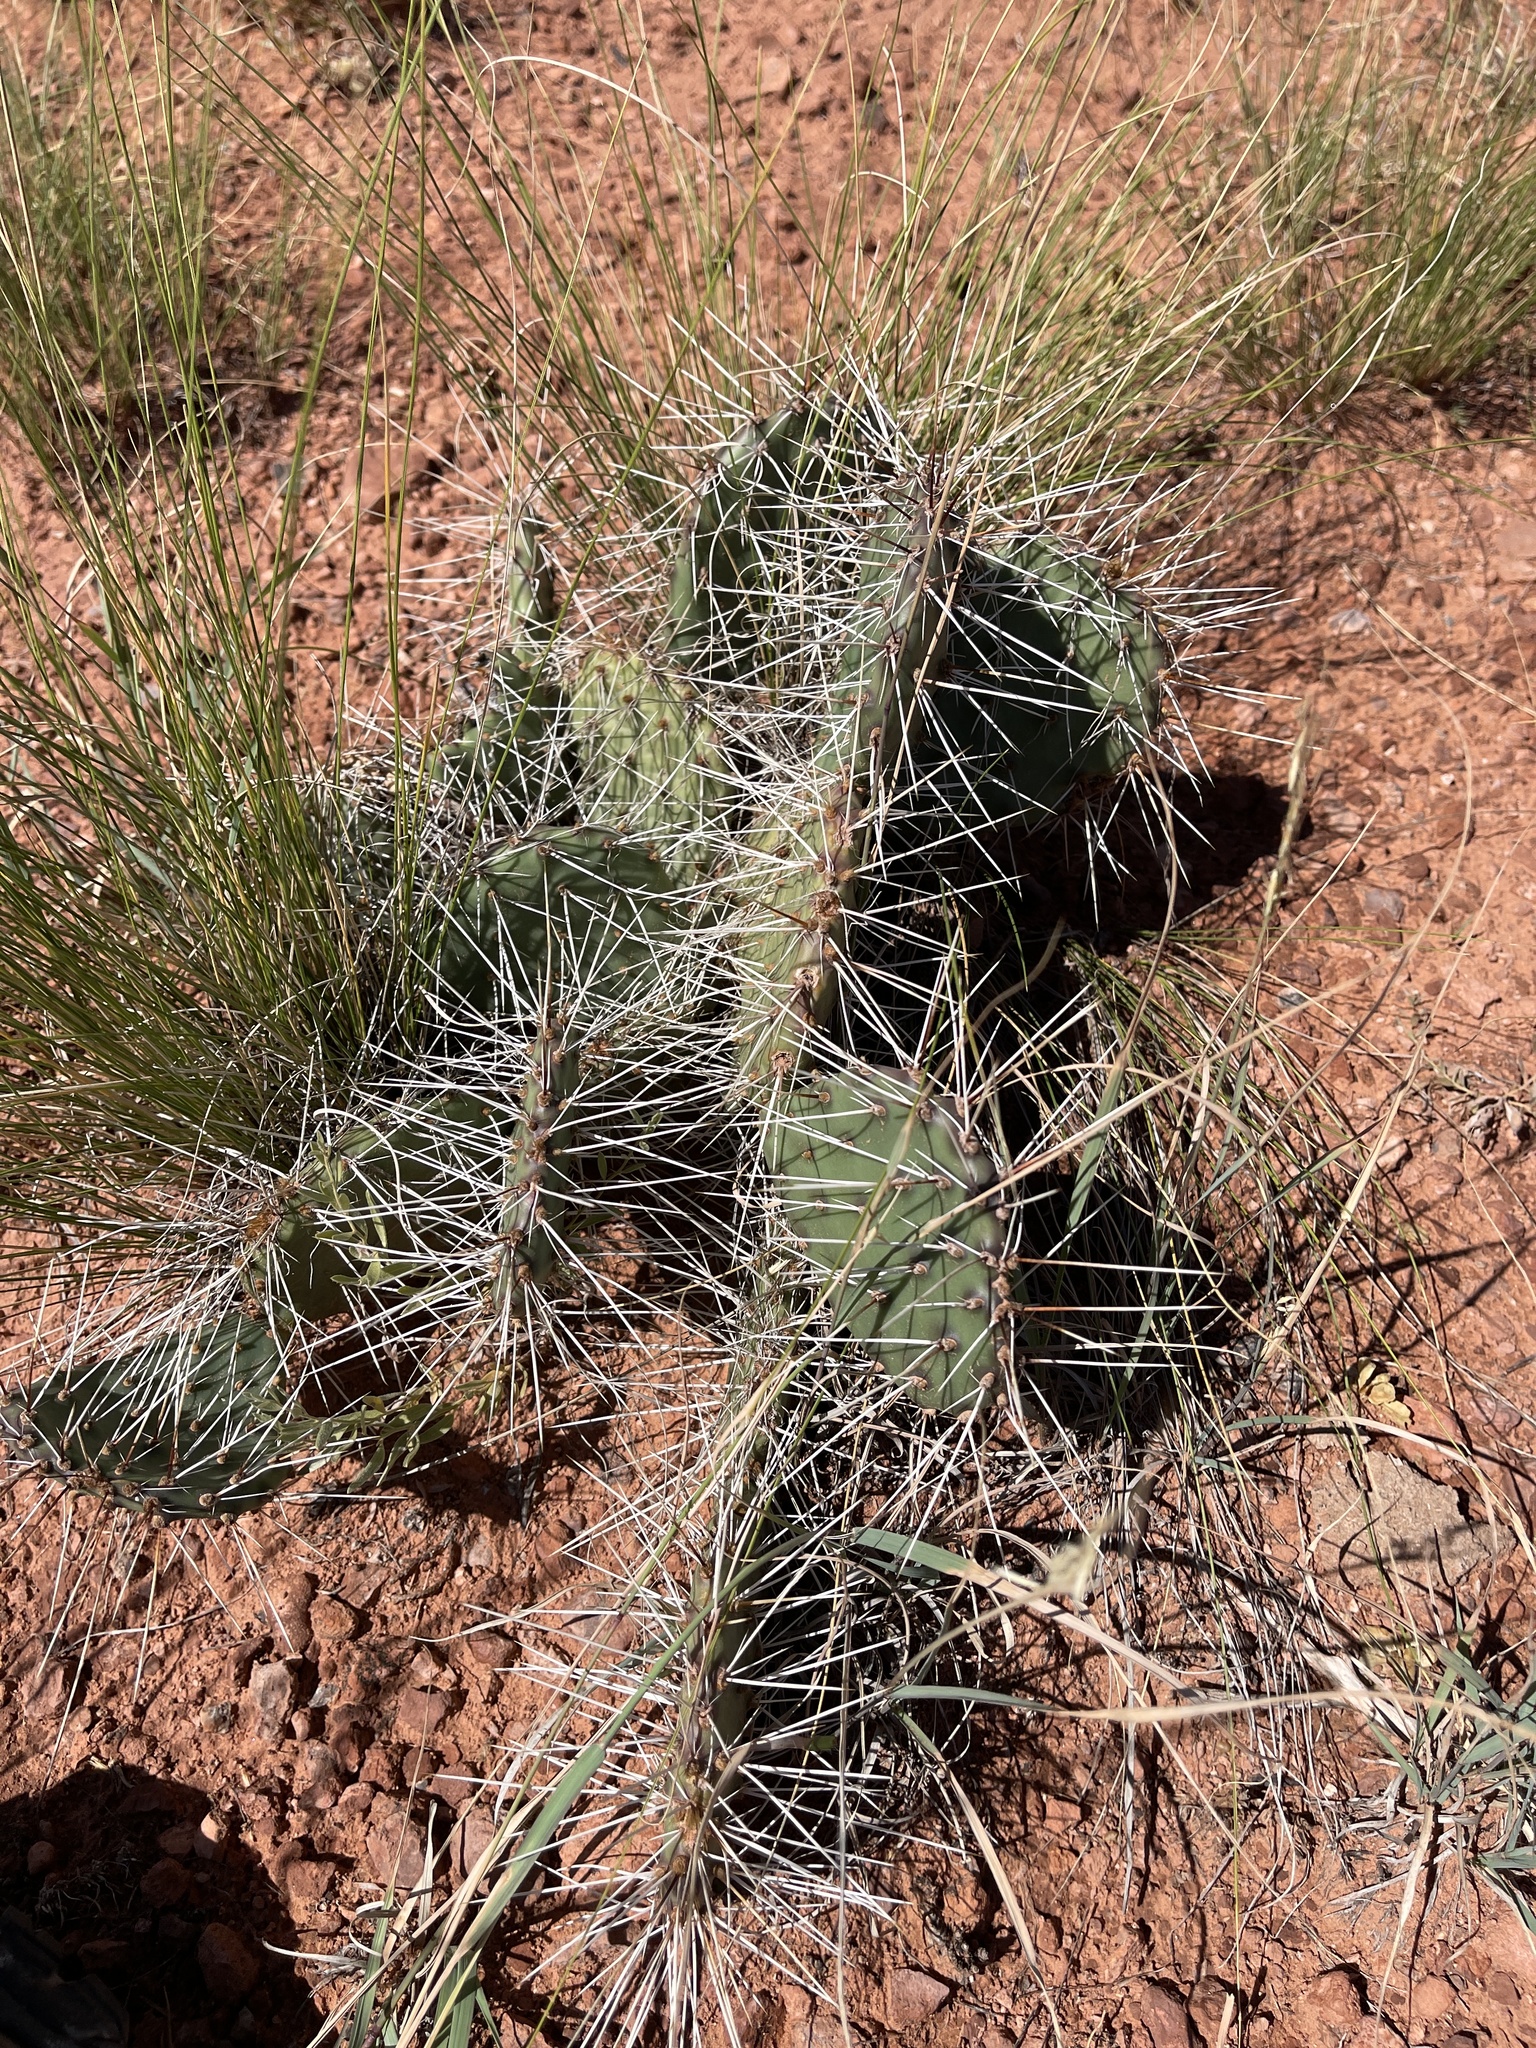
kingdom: Plantae
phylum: Tracheophyta
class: Magnoliopsida
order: Caryophyllales
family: Cactaceae
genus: Opuntia
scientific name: Opuntia polyacantha
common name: Plains prickly-pear
